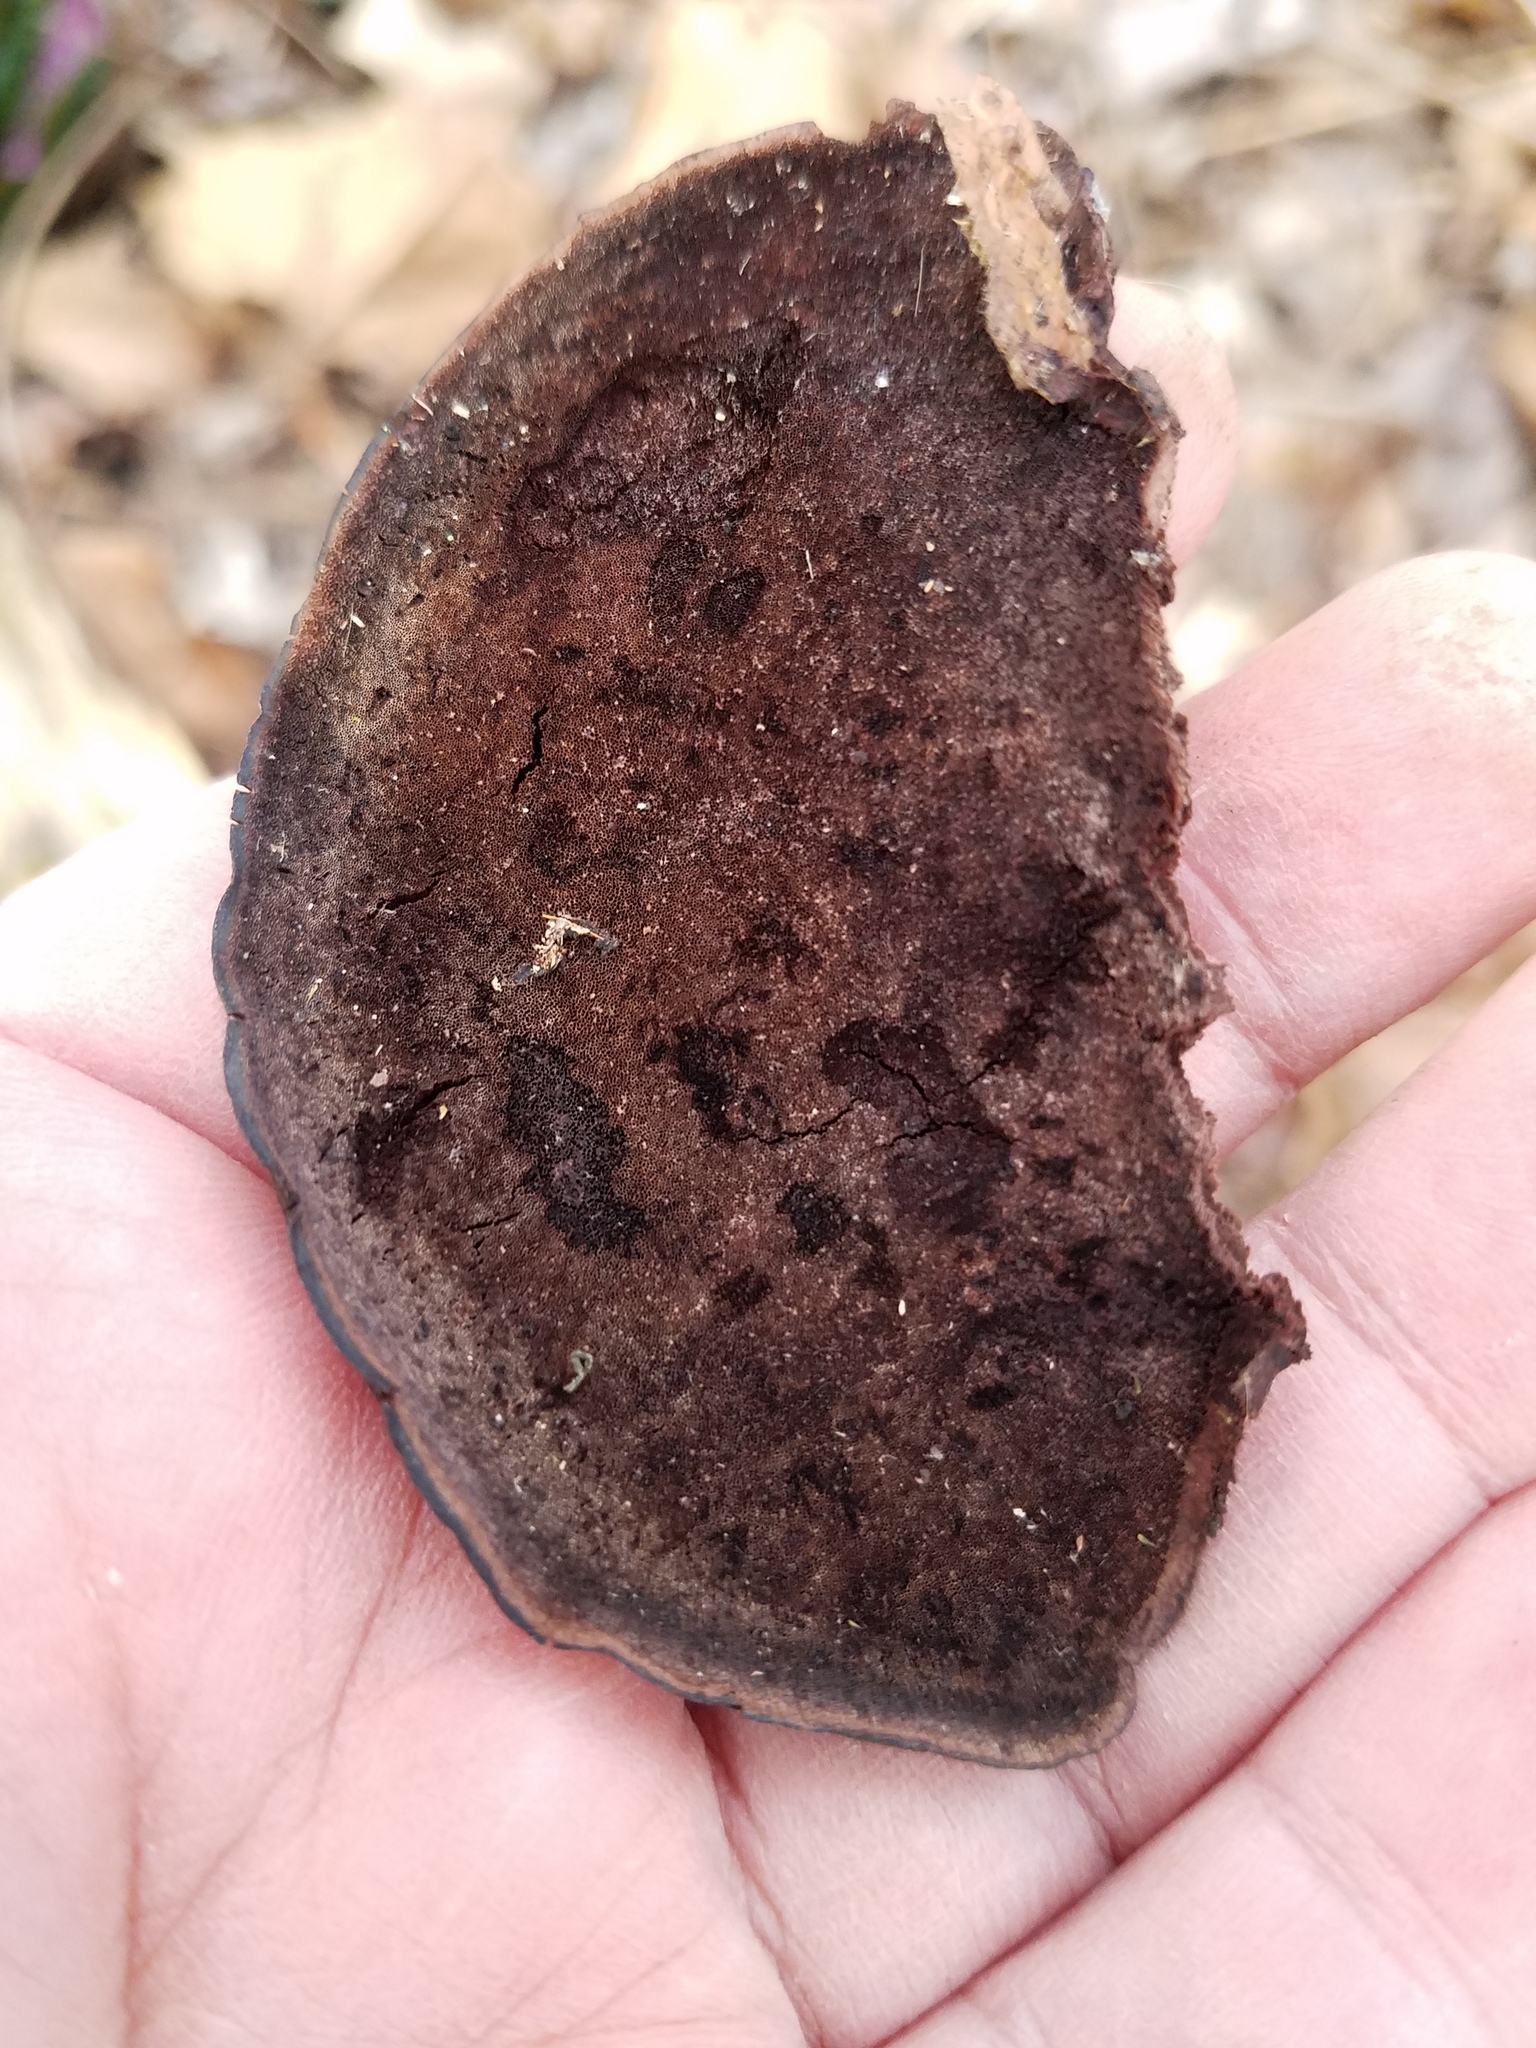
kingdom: Fungi
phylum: Basidiomycota
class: Agaricomycetes
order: Polyporales
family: Steccherinaceae
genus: Nigroporus
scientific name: Nigroporus vinosus
